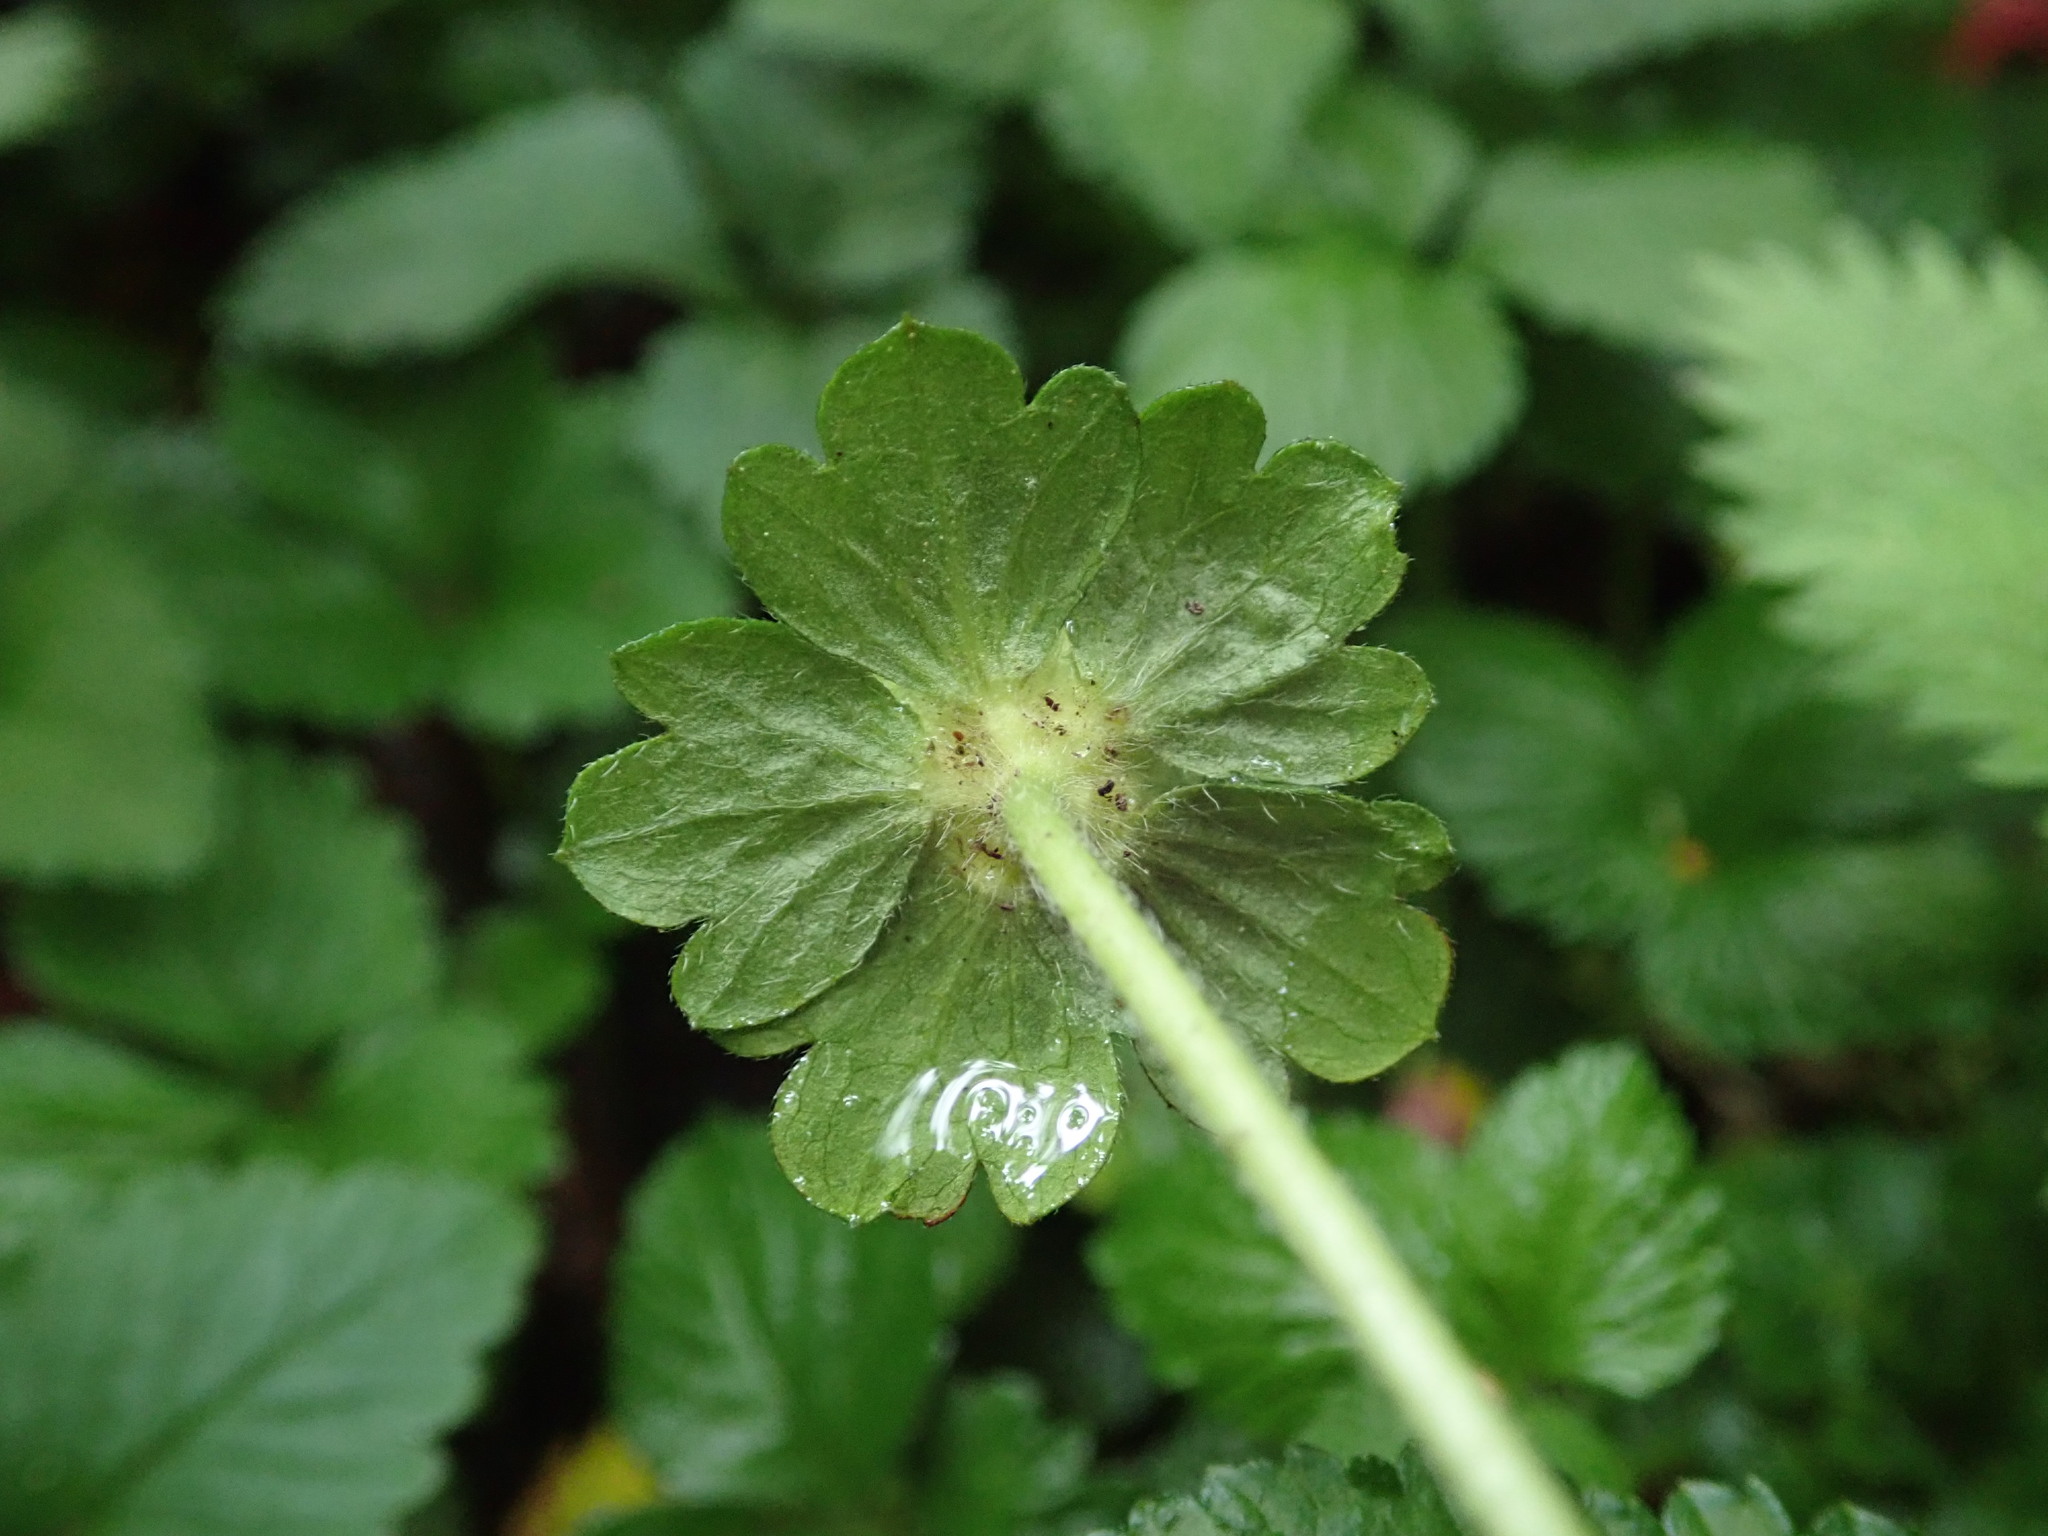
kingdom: Plantae
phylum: Tracheophyta
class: Magnoliopsida
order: Rosales
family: Rosaceae
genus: Potentilla
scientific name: Potentilla indica
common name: Yellow-flowered strawberry
